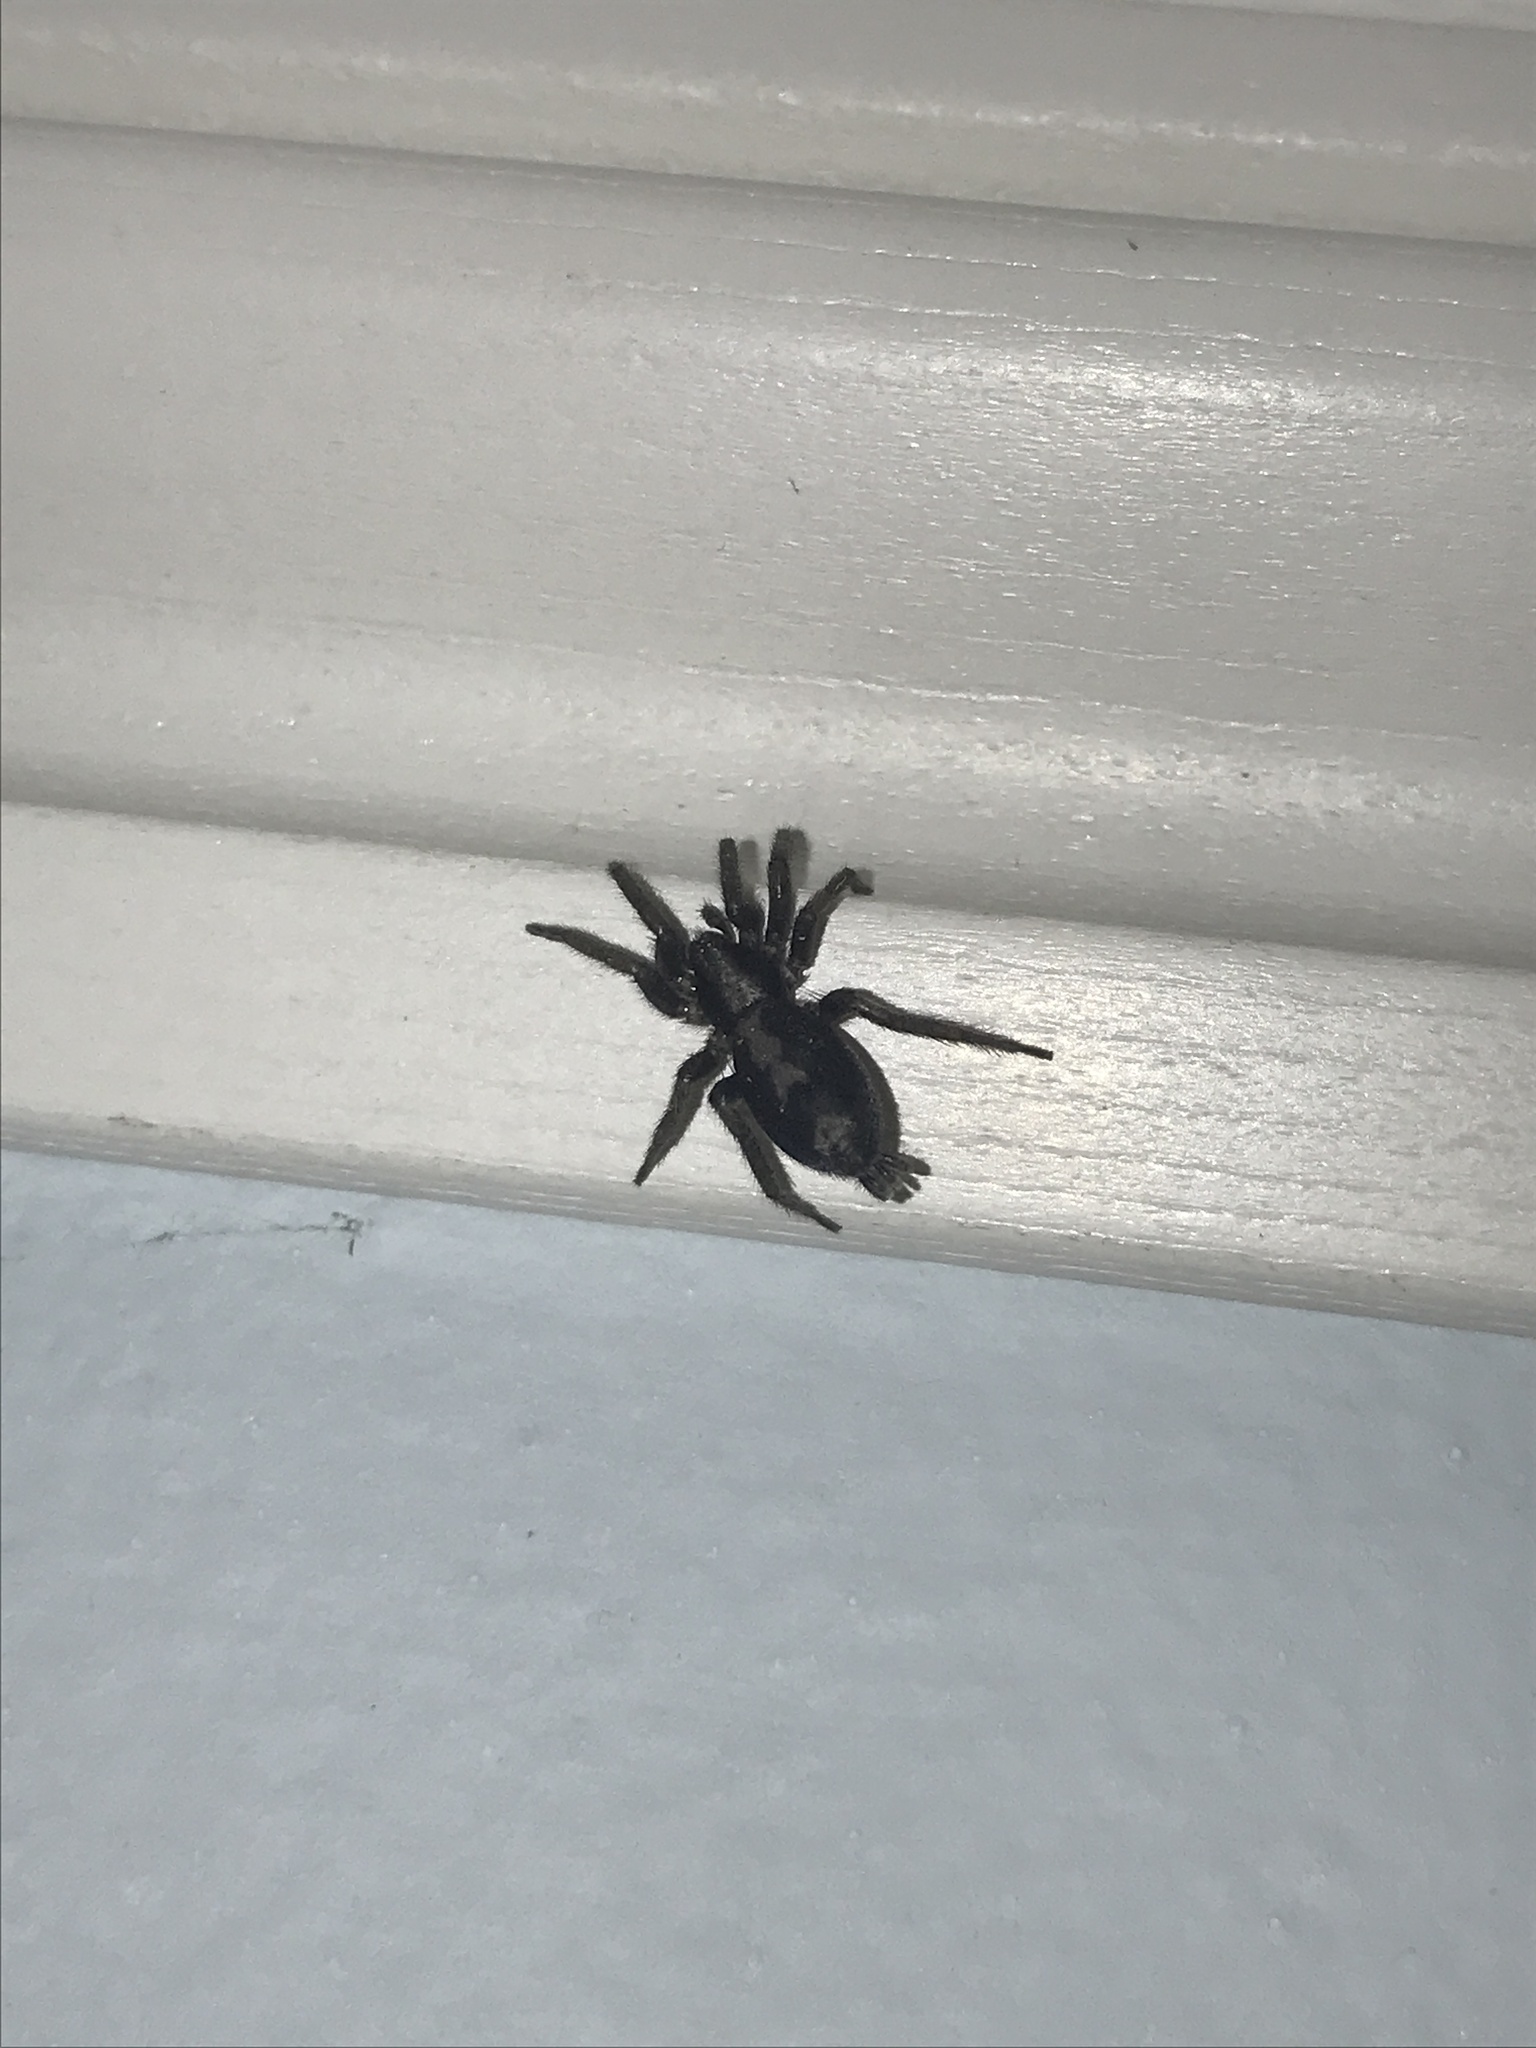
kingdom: Animalia
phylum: Arthropoda
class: Arachnida
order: Araneae
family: Gnaphosidae
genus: Herpyllus
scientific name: Herpyllus ecclesiasticus
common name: Eastern parson spider
